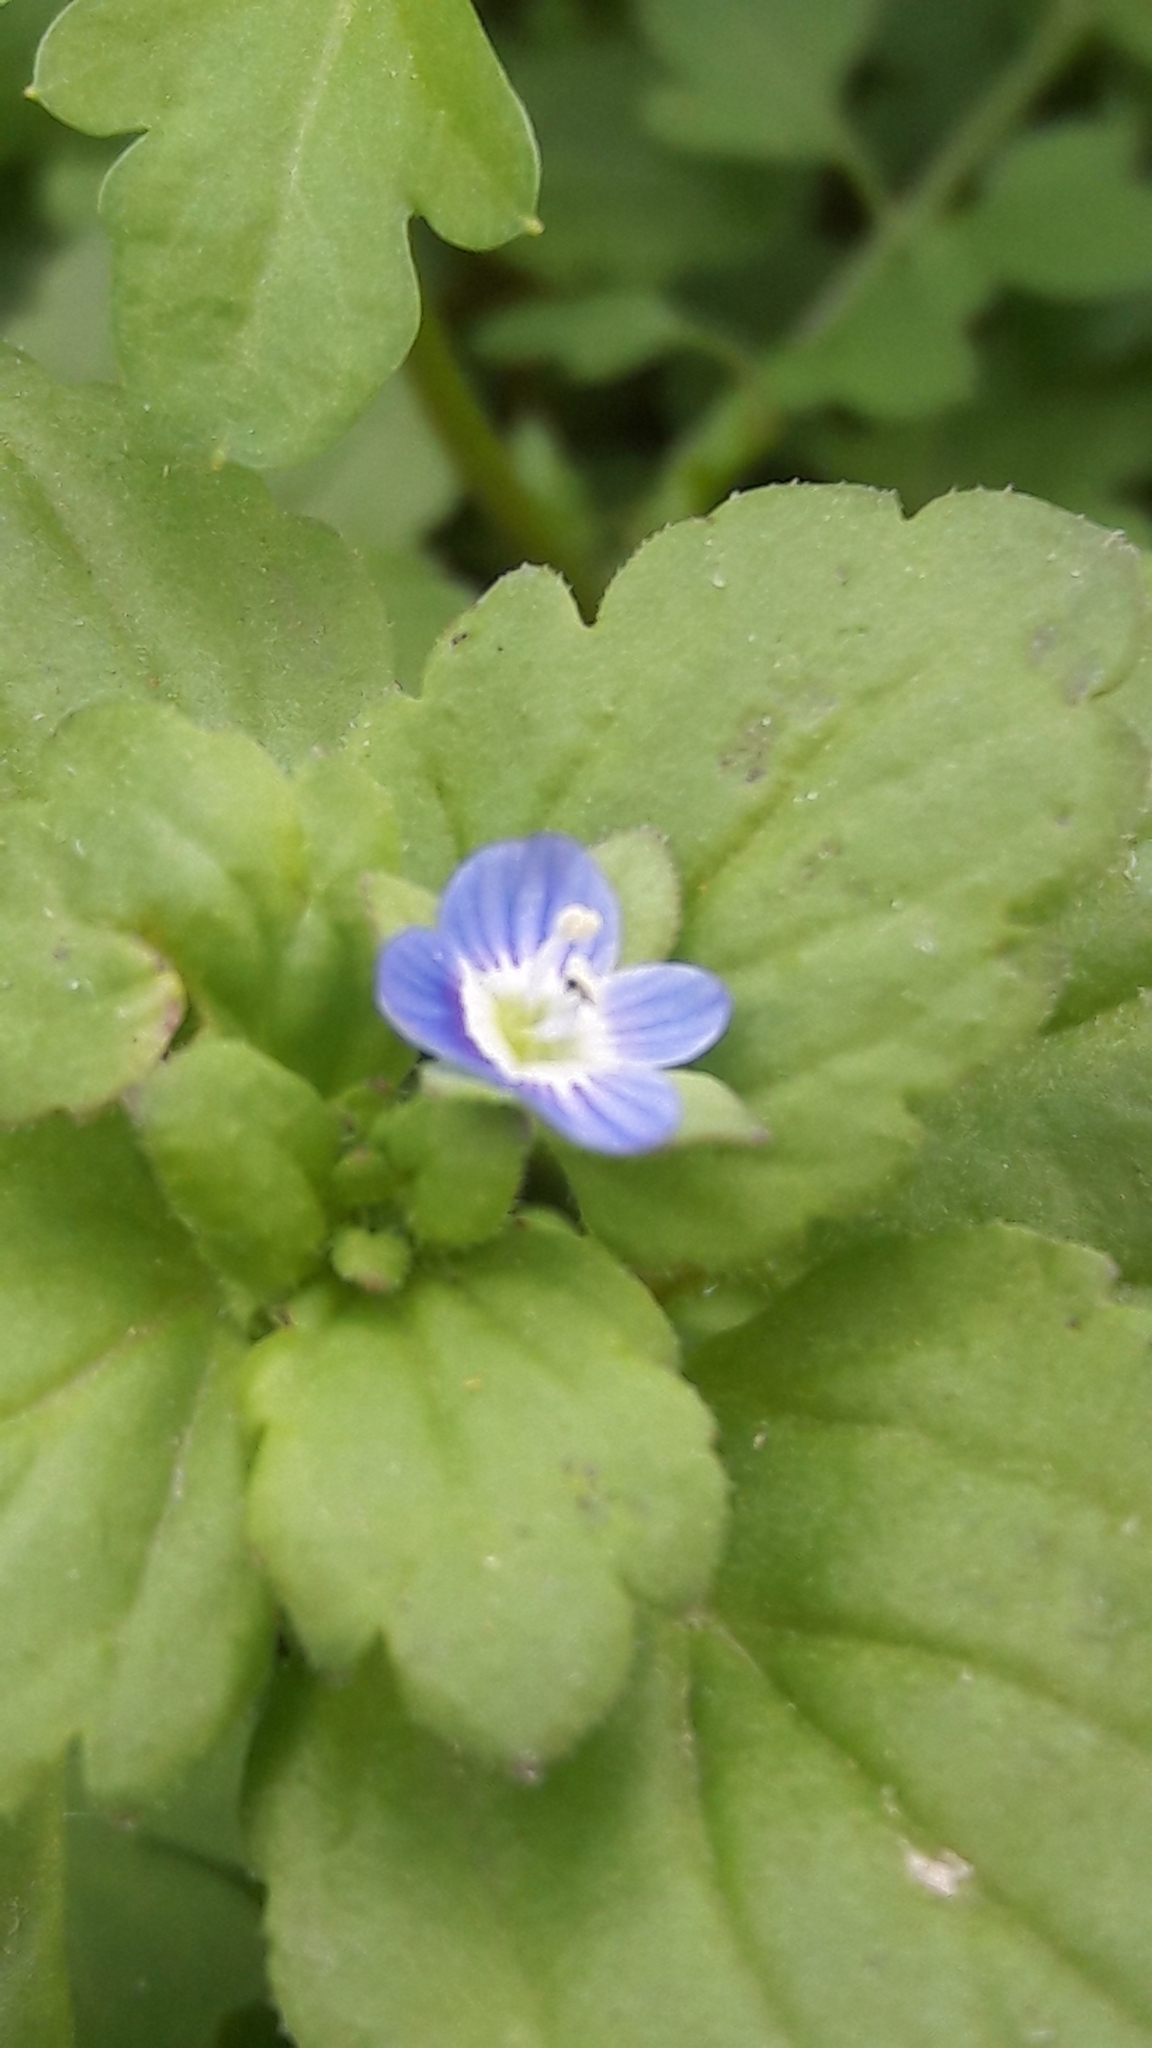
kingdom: Plantae
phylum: Tracheophyta
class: Magnoliopsida
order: Lamiales
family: Plantaginaceae
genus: Veronica
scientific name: Veronica polita
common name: Grey field-speedwell
